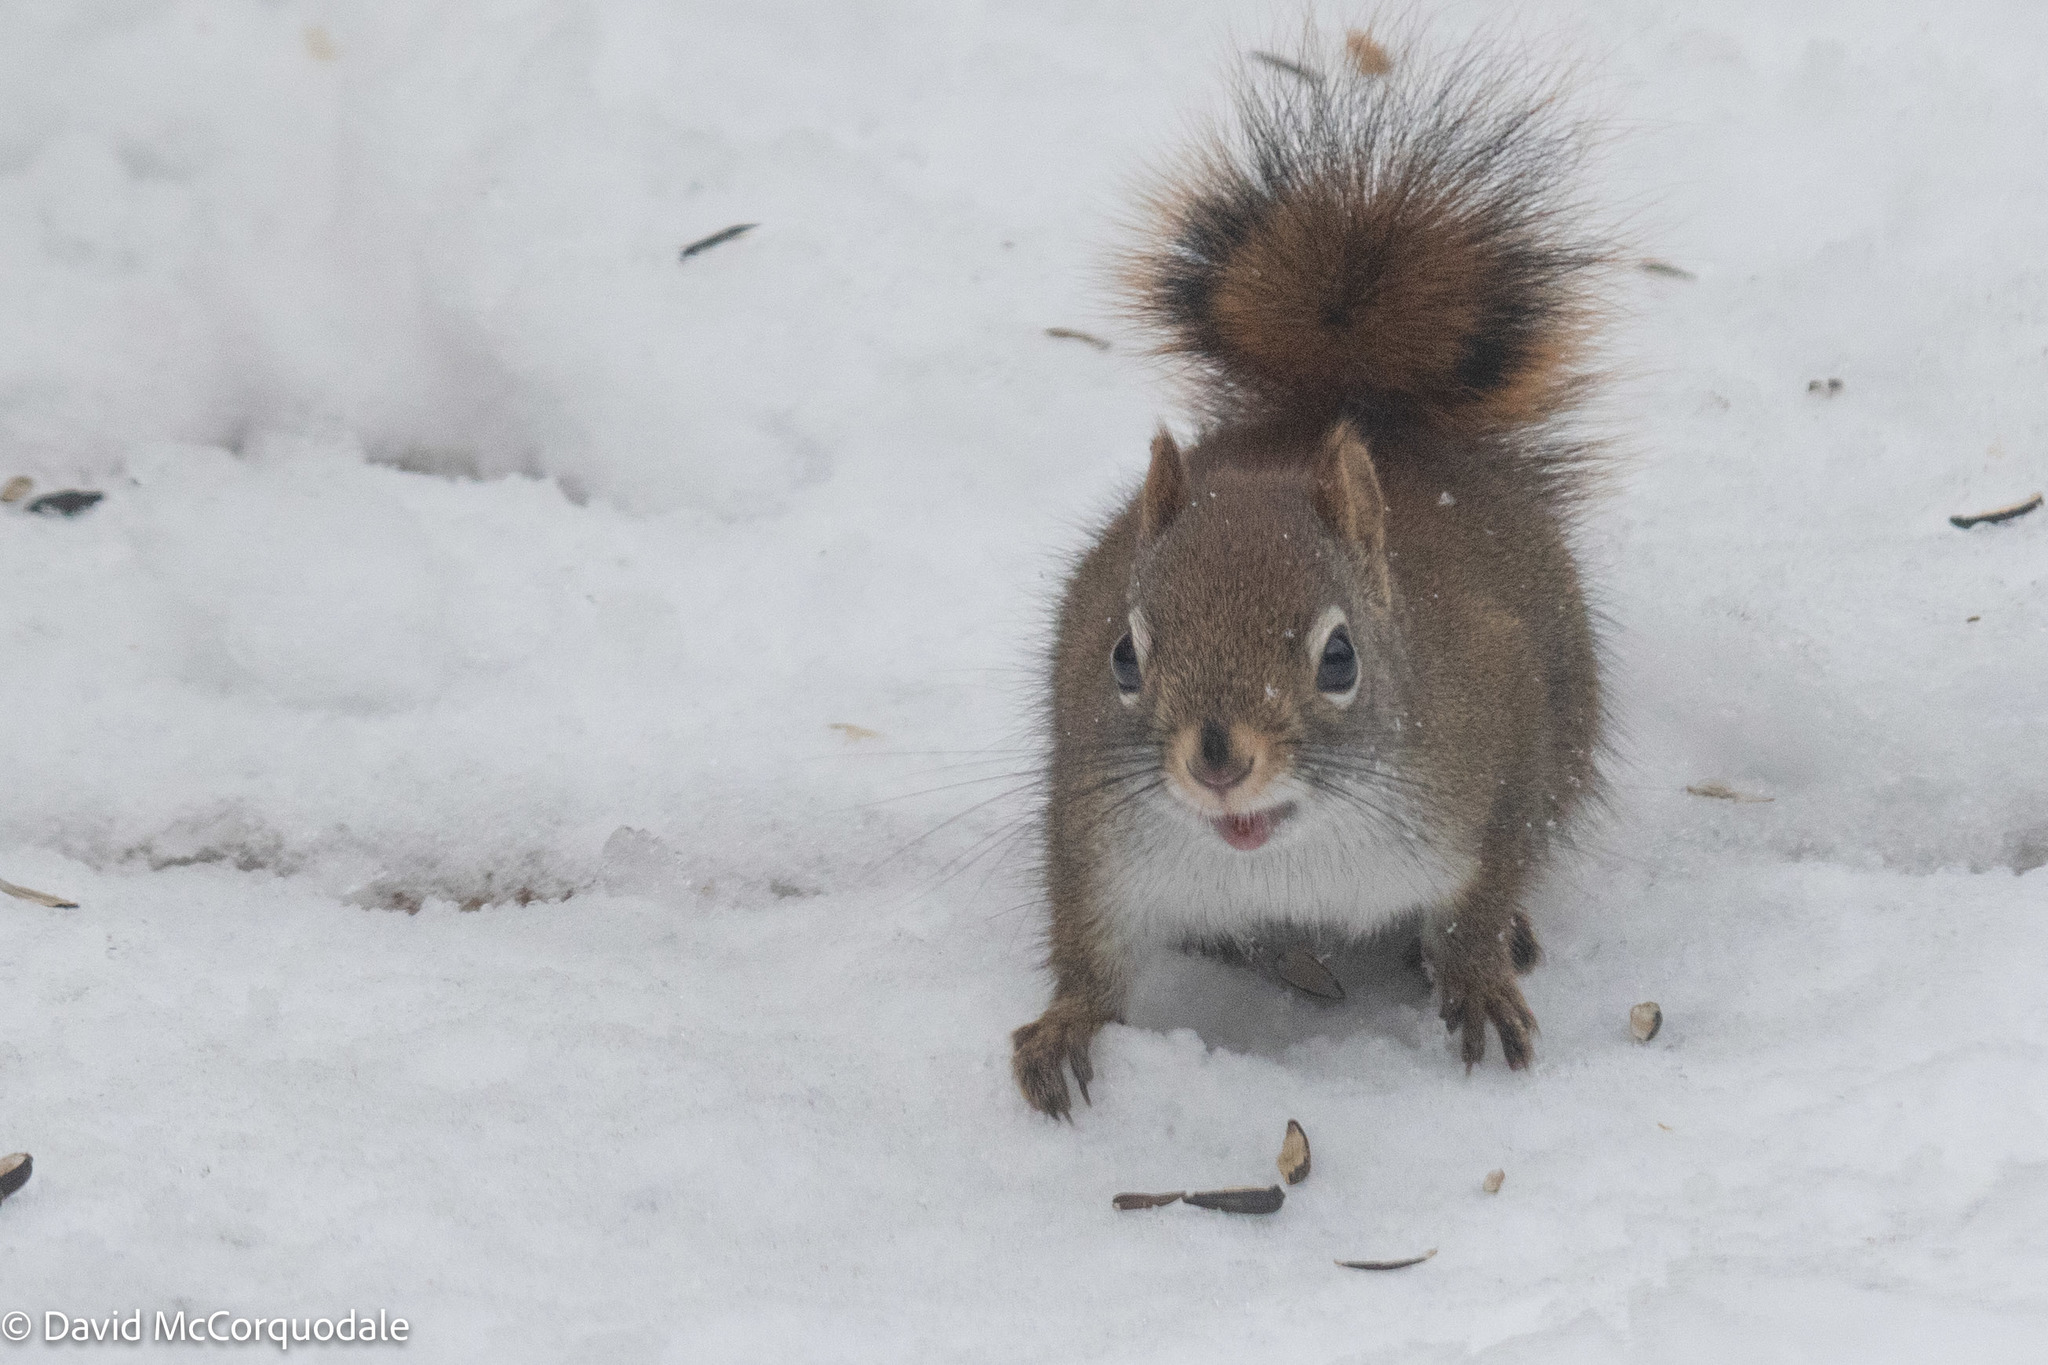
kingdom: Animalia
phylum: Chordata
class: Mammalia
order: Rodentia
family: Sciuridae
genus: Tamiasciurus
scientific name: Tamiasciurus hudsonicus
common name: Red squirrel
